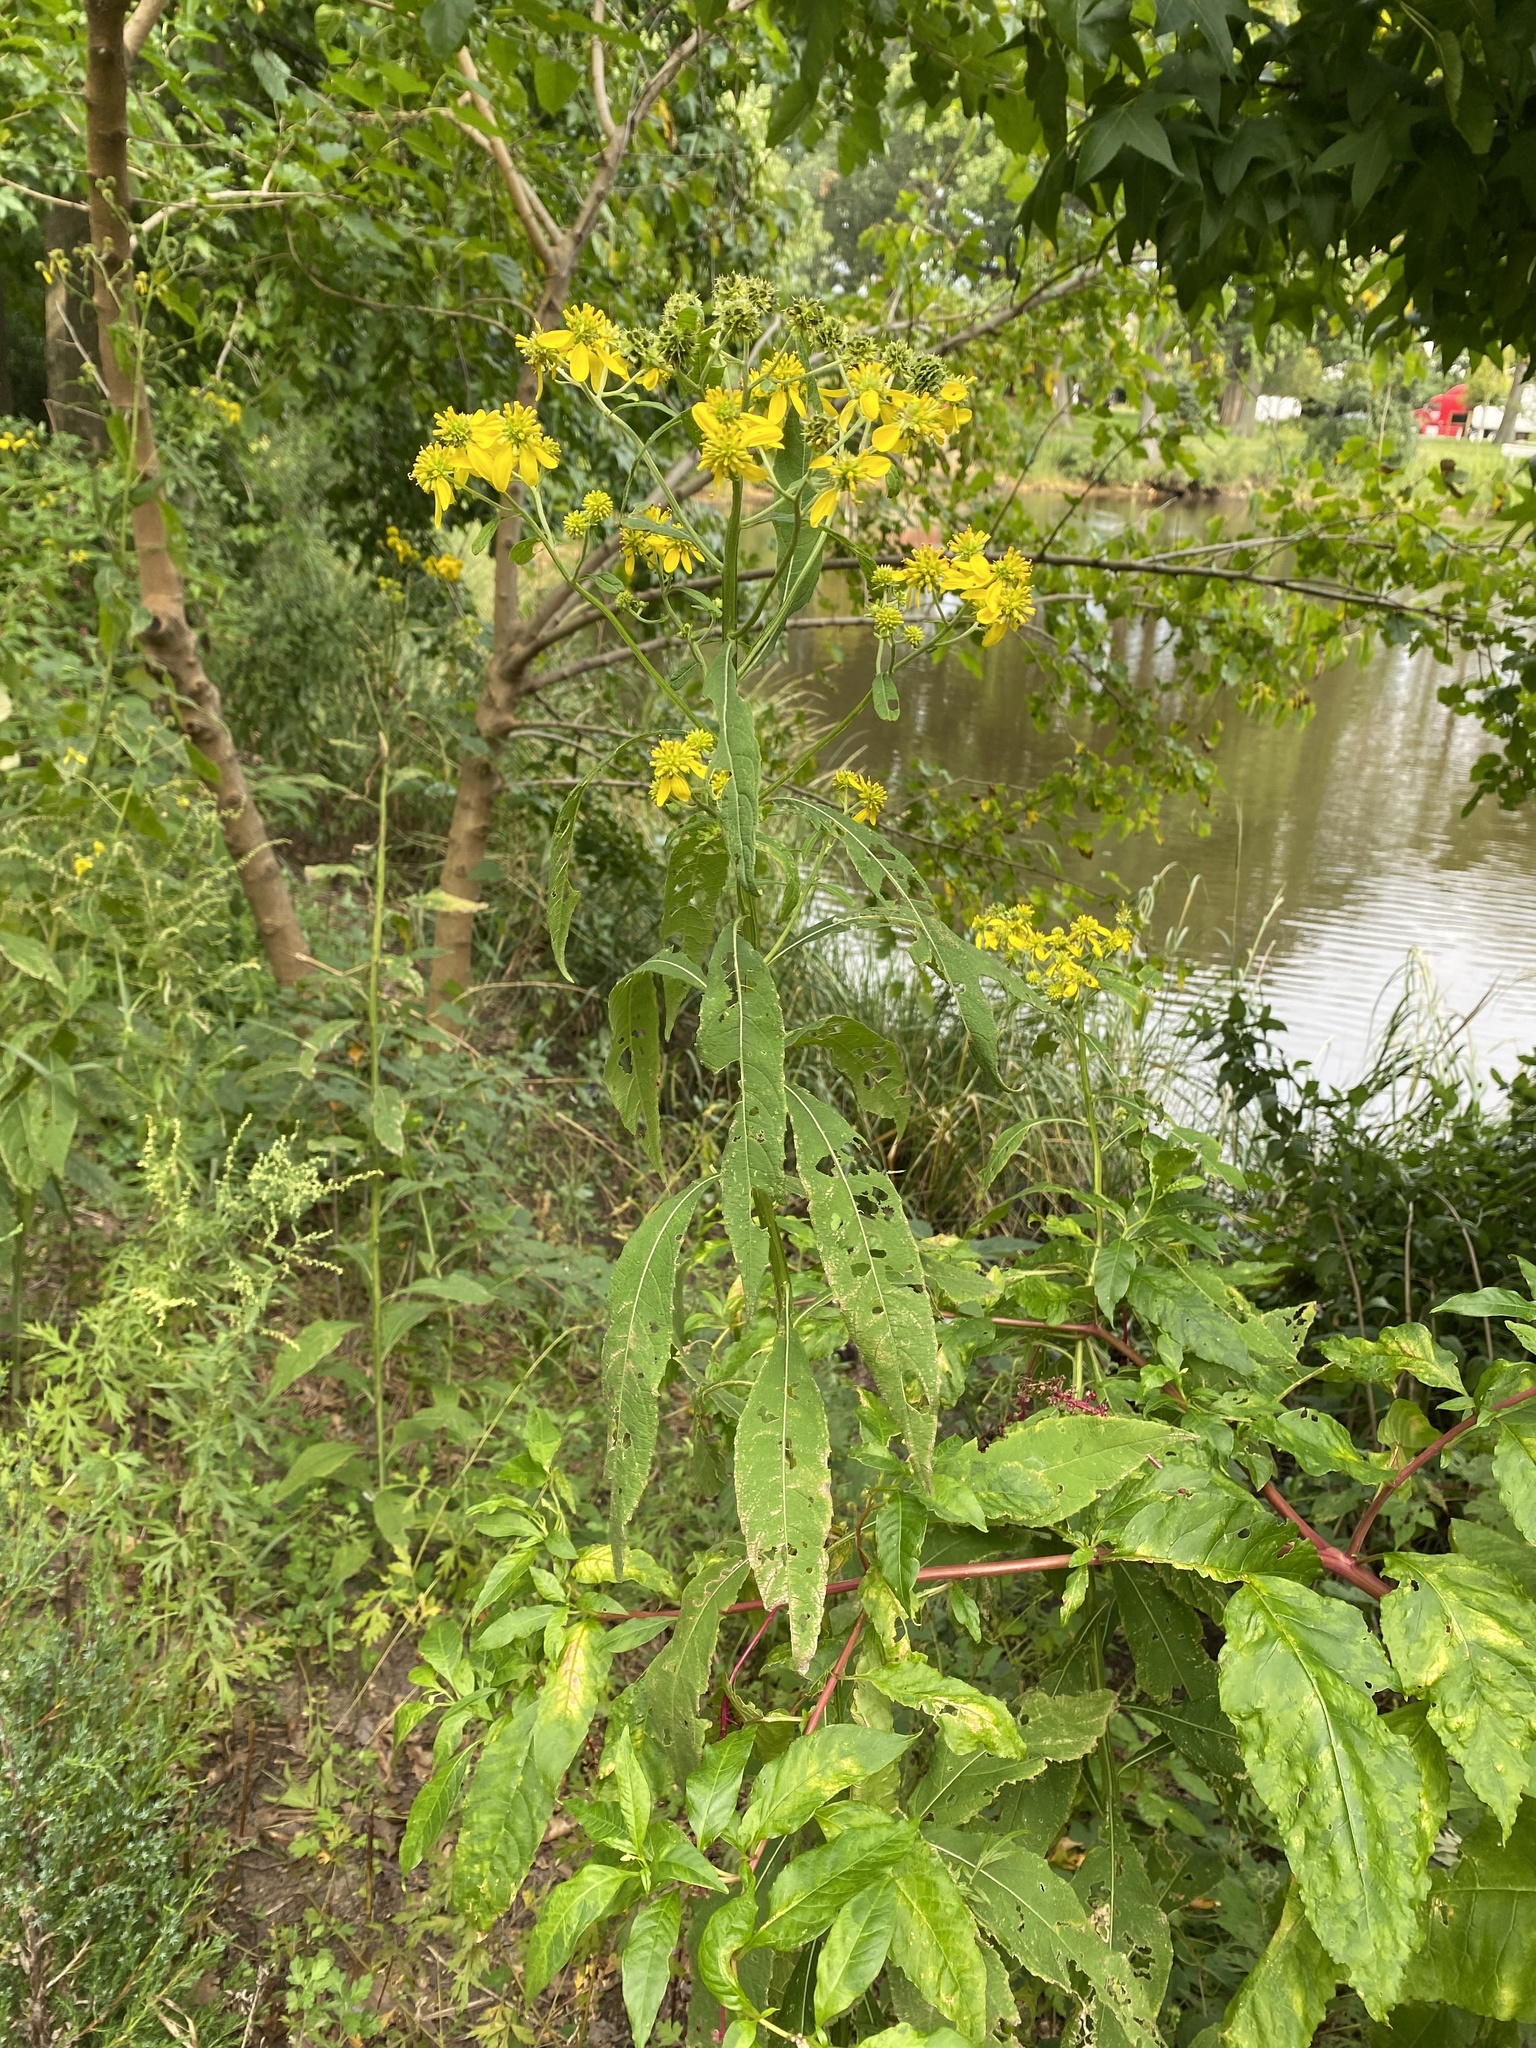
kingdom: Plantae
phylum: Tracheophyta
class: Magnoliopsida
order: Asterales
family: Asteraceae
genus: Verbesina
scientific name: Verbesina alternifolia
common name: Wingstem
